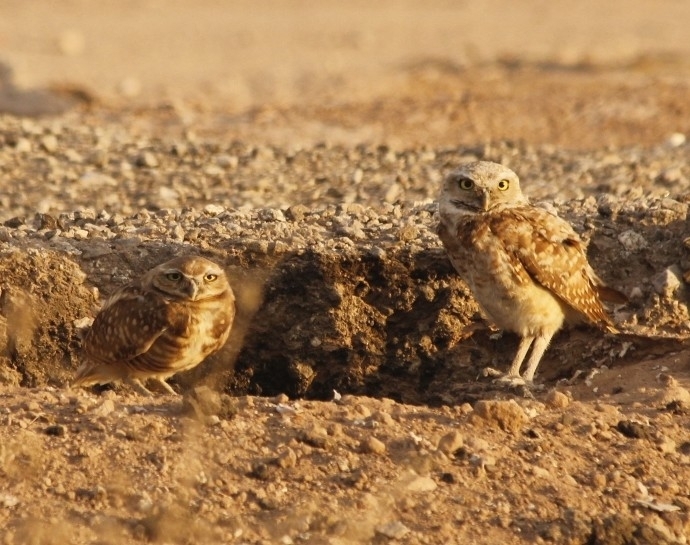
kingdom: Animalia
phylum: Chordata
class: Aves
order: Strigiformes
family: Strigidae
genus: Athene
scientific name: Athene cunicularia
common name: Burrowing owl
